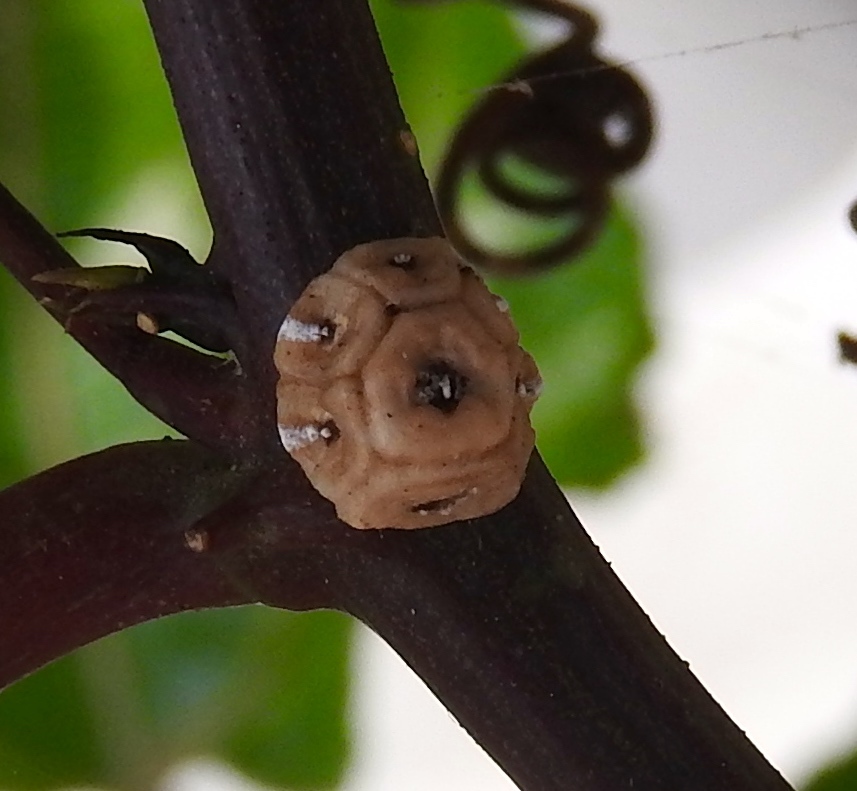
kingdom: Animalia
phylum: Arthropoda
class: Insecta
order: Hemiptera
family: Coccidae
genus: Ceroplastes
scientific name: Ceroplastes
